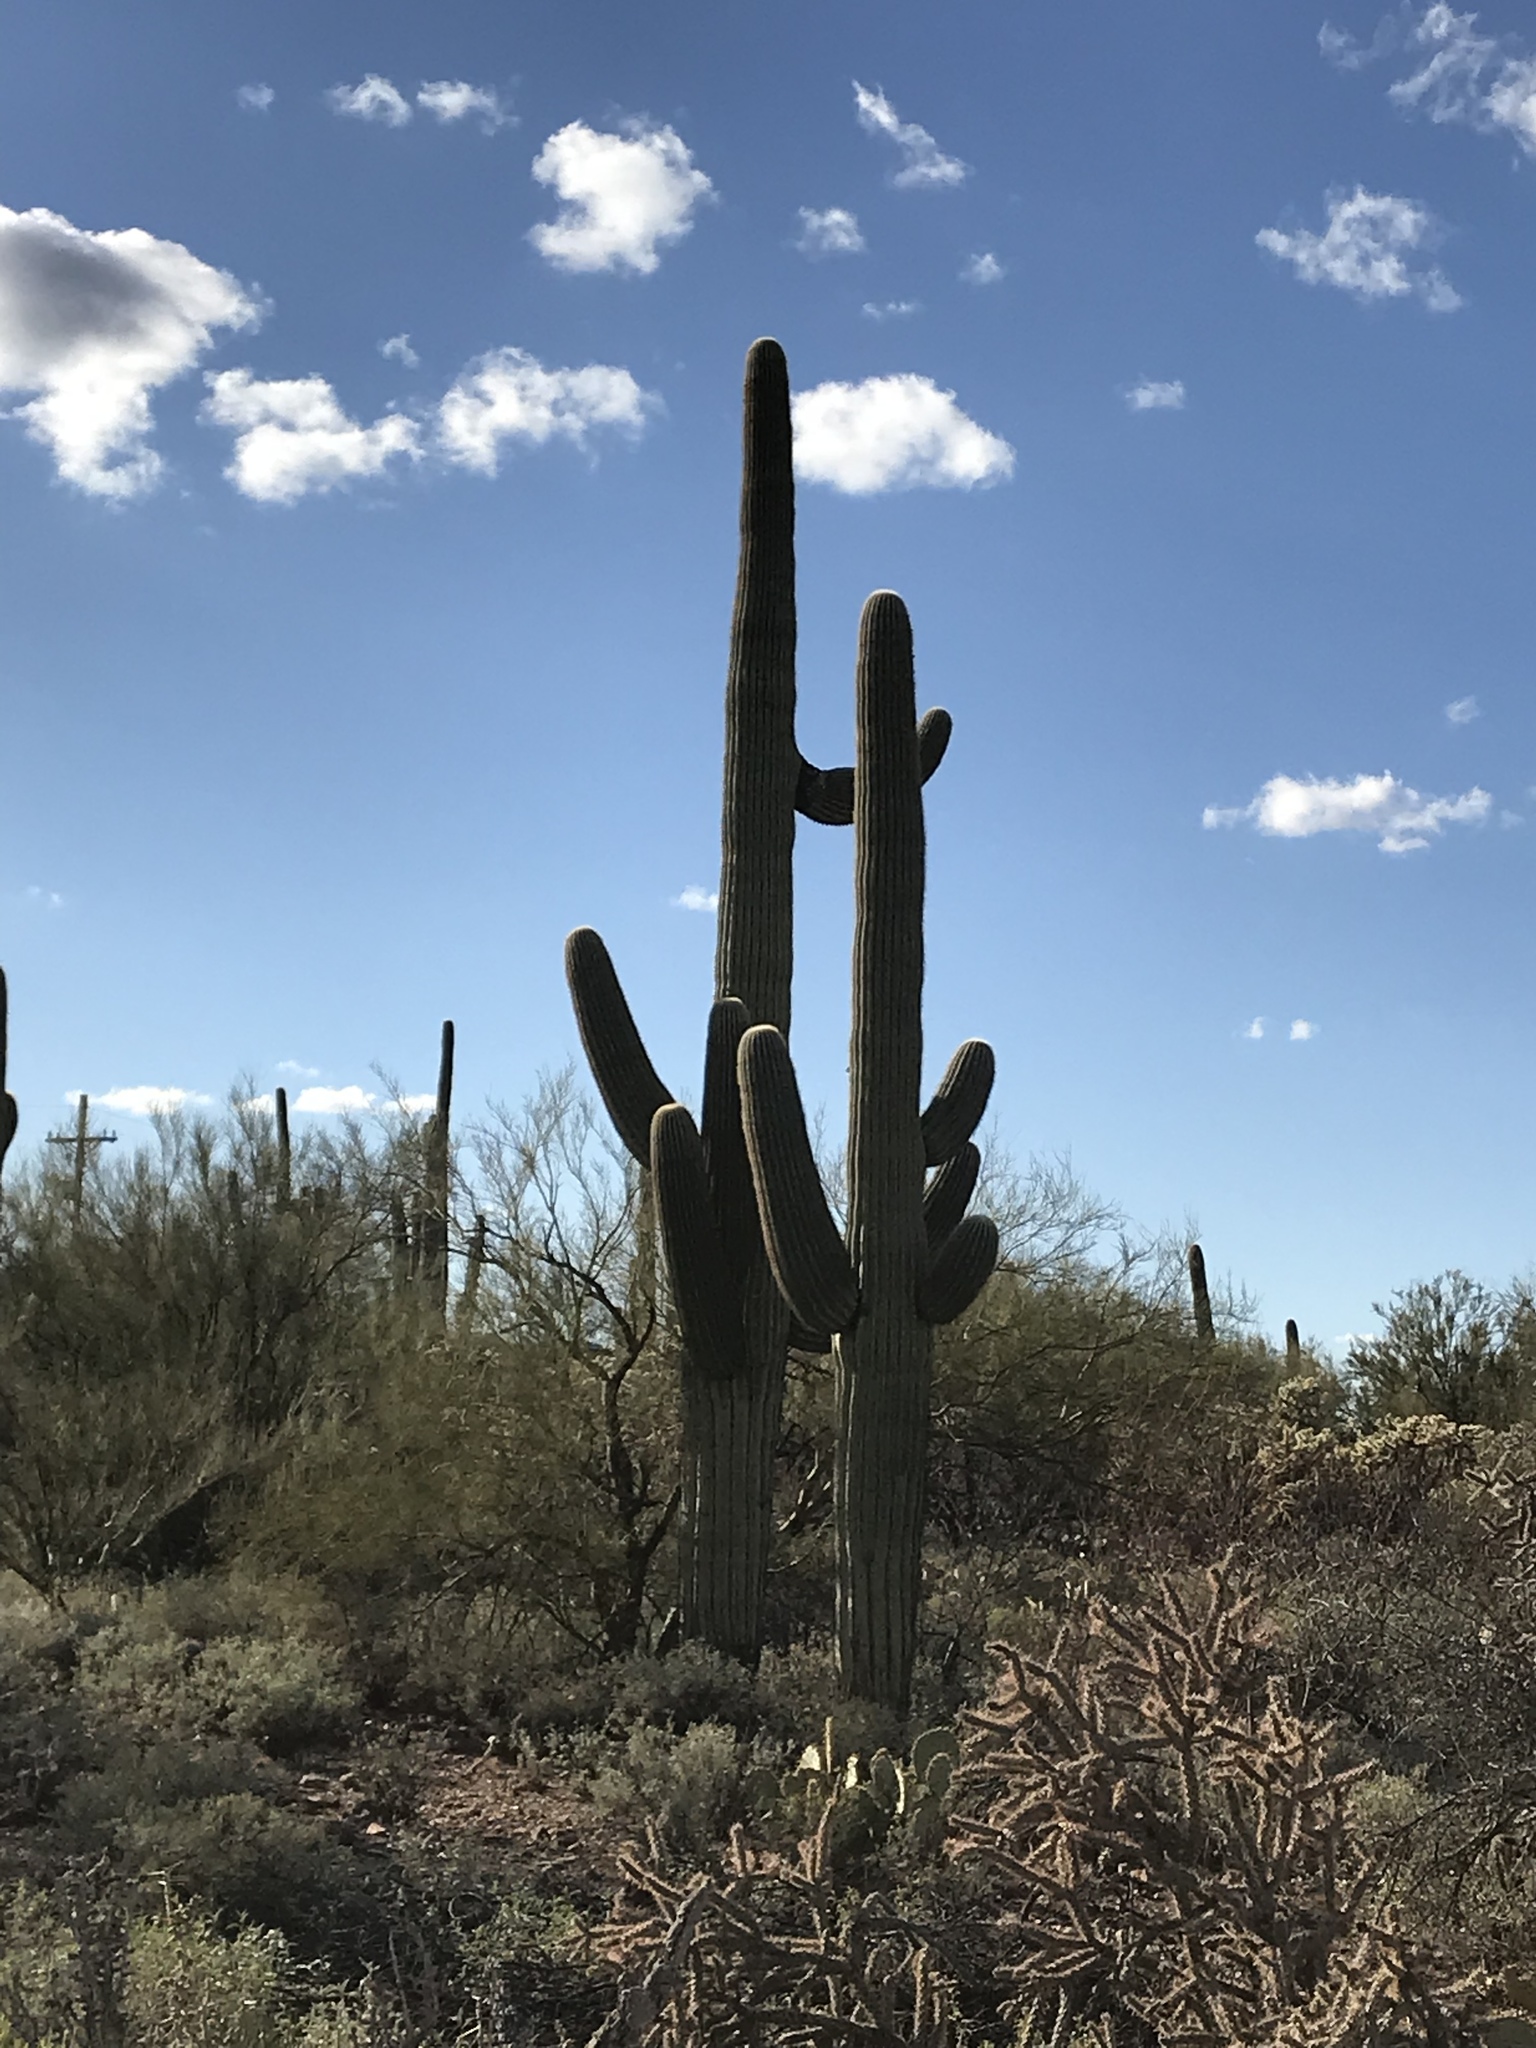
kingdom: Plantae
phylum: Tracheophyta
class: Magnoliopsida
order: Caryophyllales
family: Cactaceae
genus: Carnegiea
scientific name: Carnegiea gigantea
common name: Saguaro
